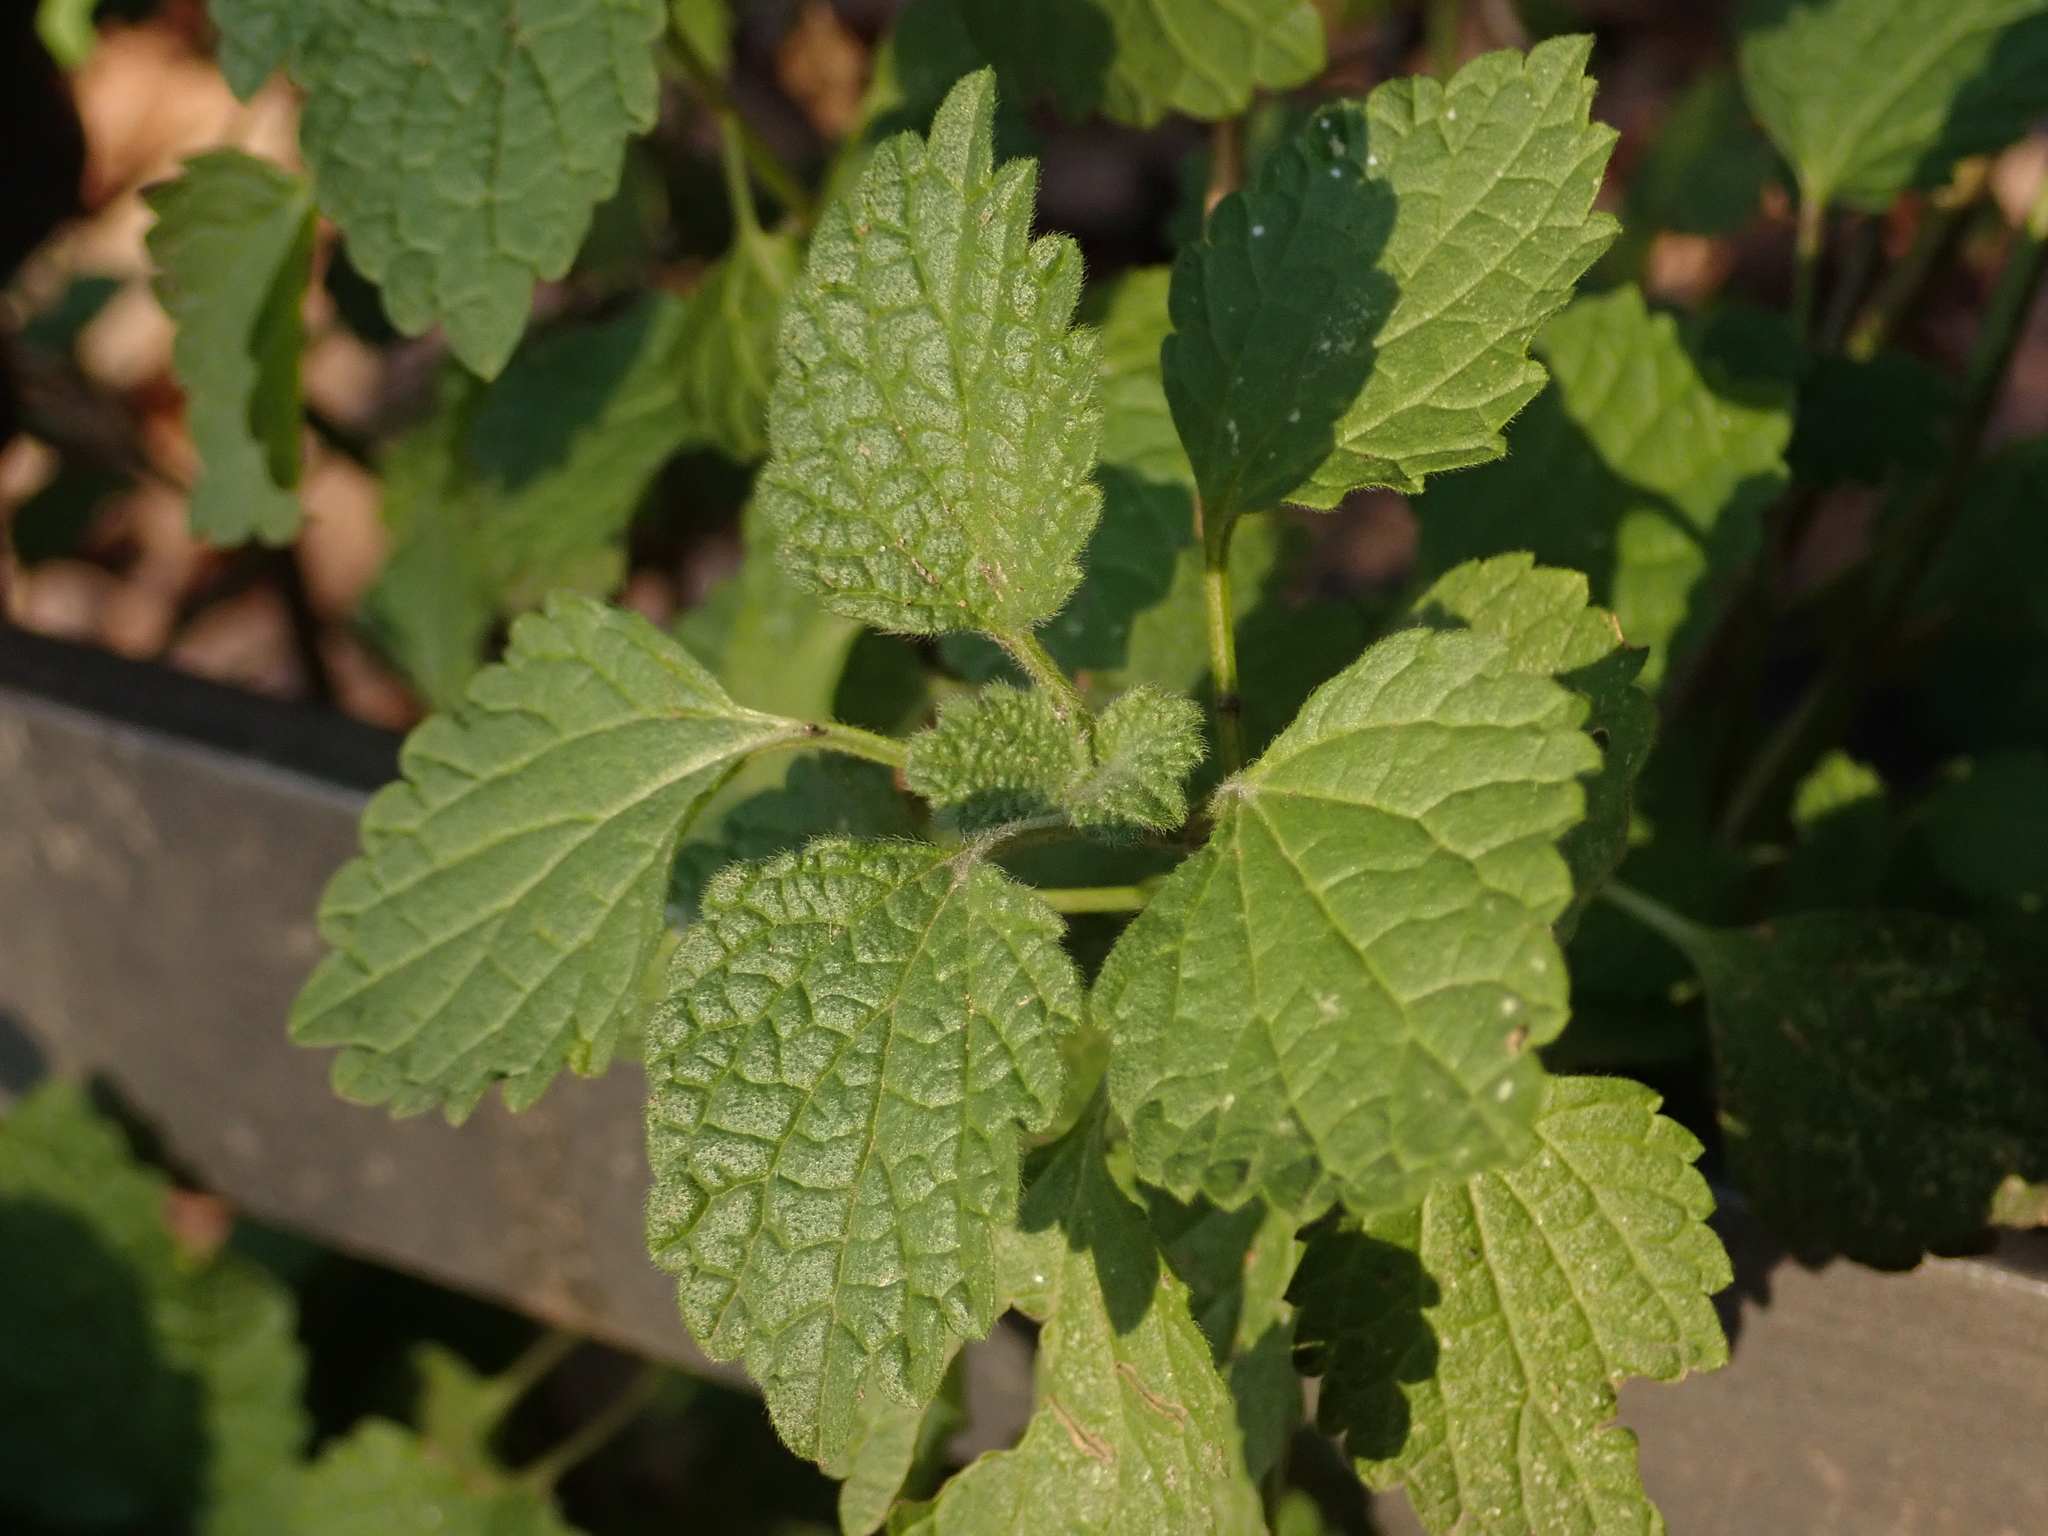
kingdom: Plantae
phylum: Tracheophyta
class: Magnoliopsida
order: Lamiales
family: Lamiaceae
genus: Ballota
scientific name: Ballota nigra
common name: Black horehound
